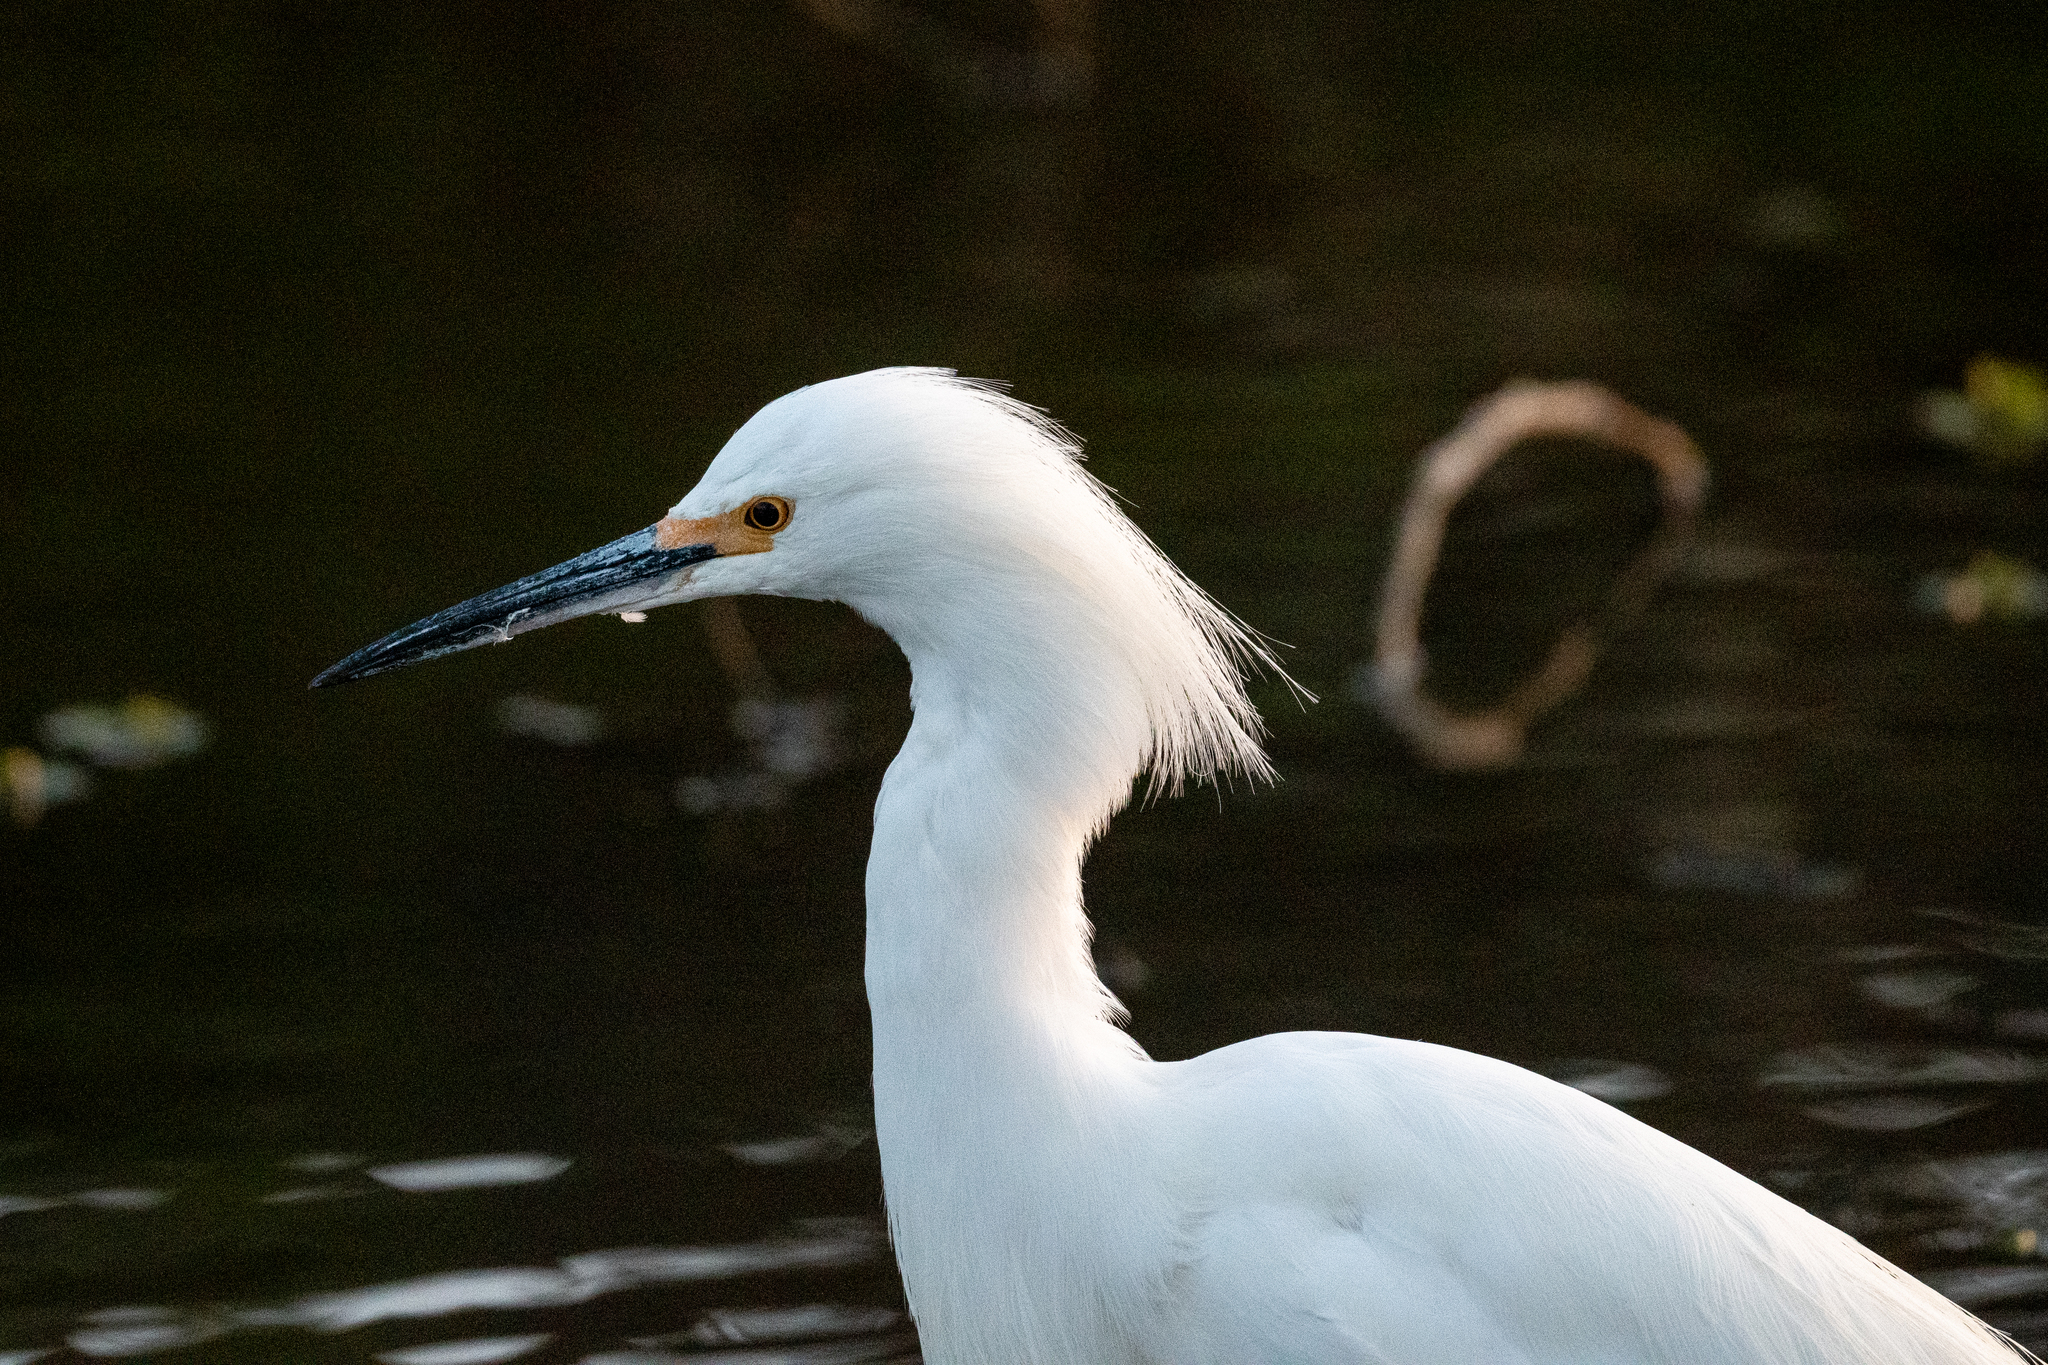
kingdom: Animalia
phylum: Chordata
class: Aves
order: Pelecaniformes
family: Ardeidae
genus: Egretta
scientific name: Egretta thula
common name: Snowy egret
